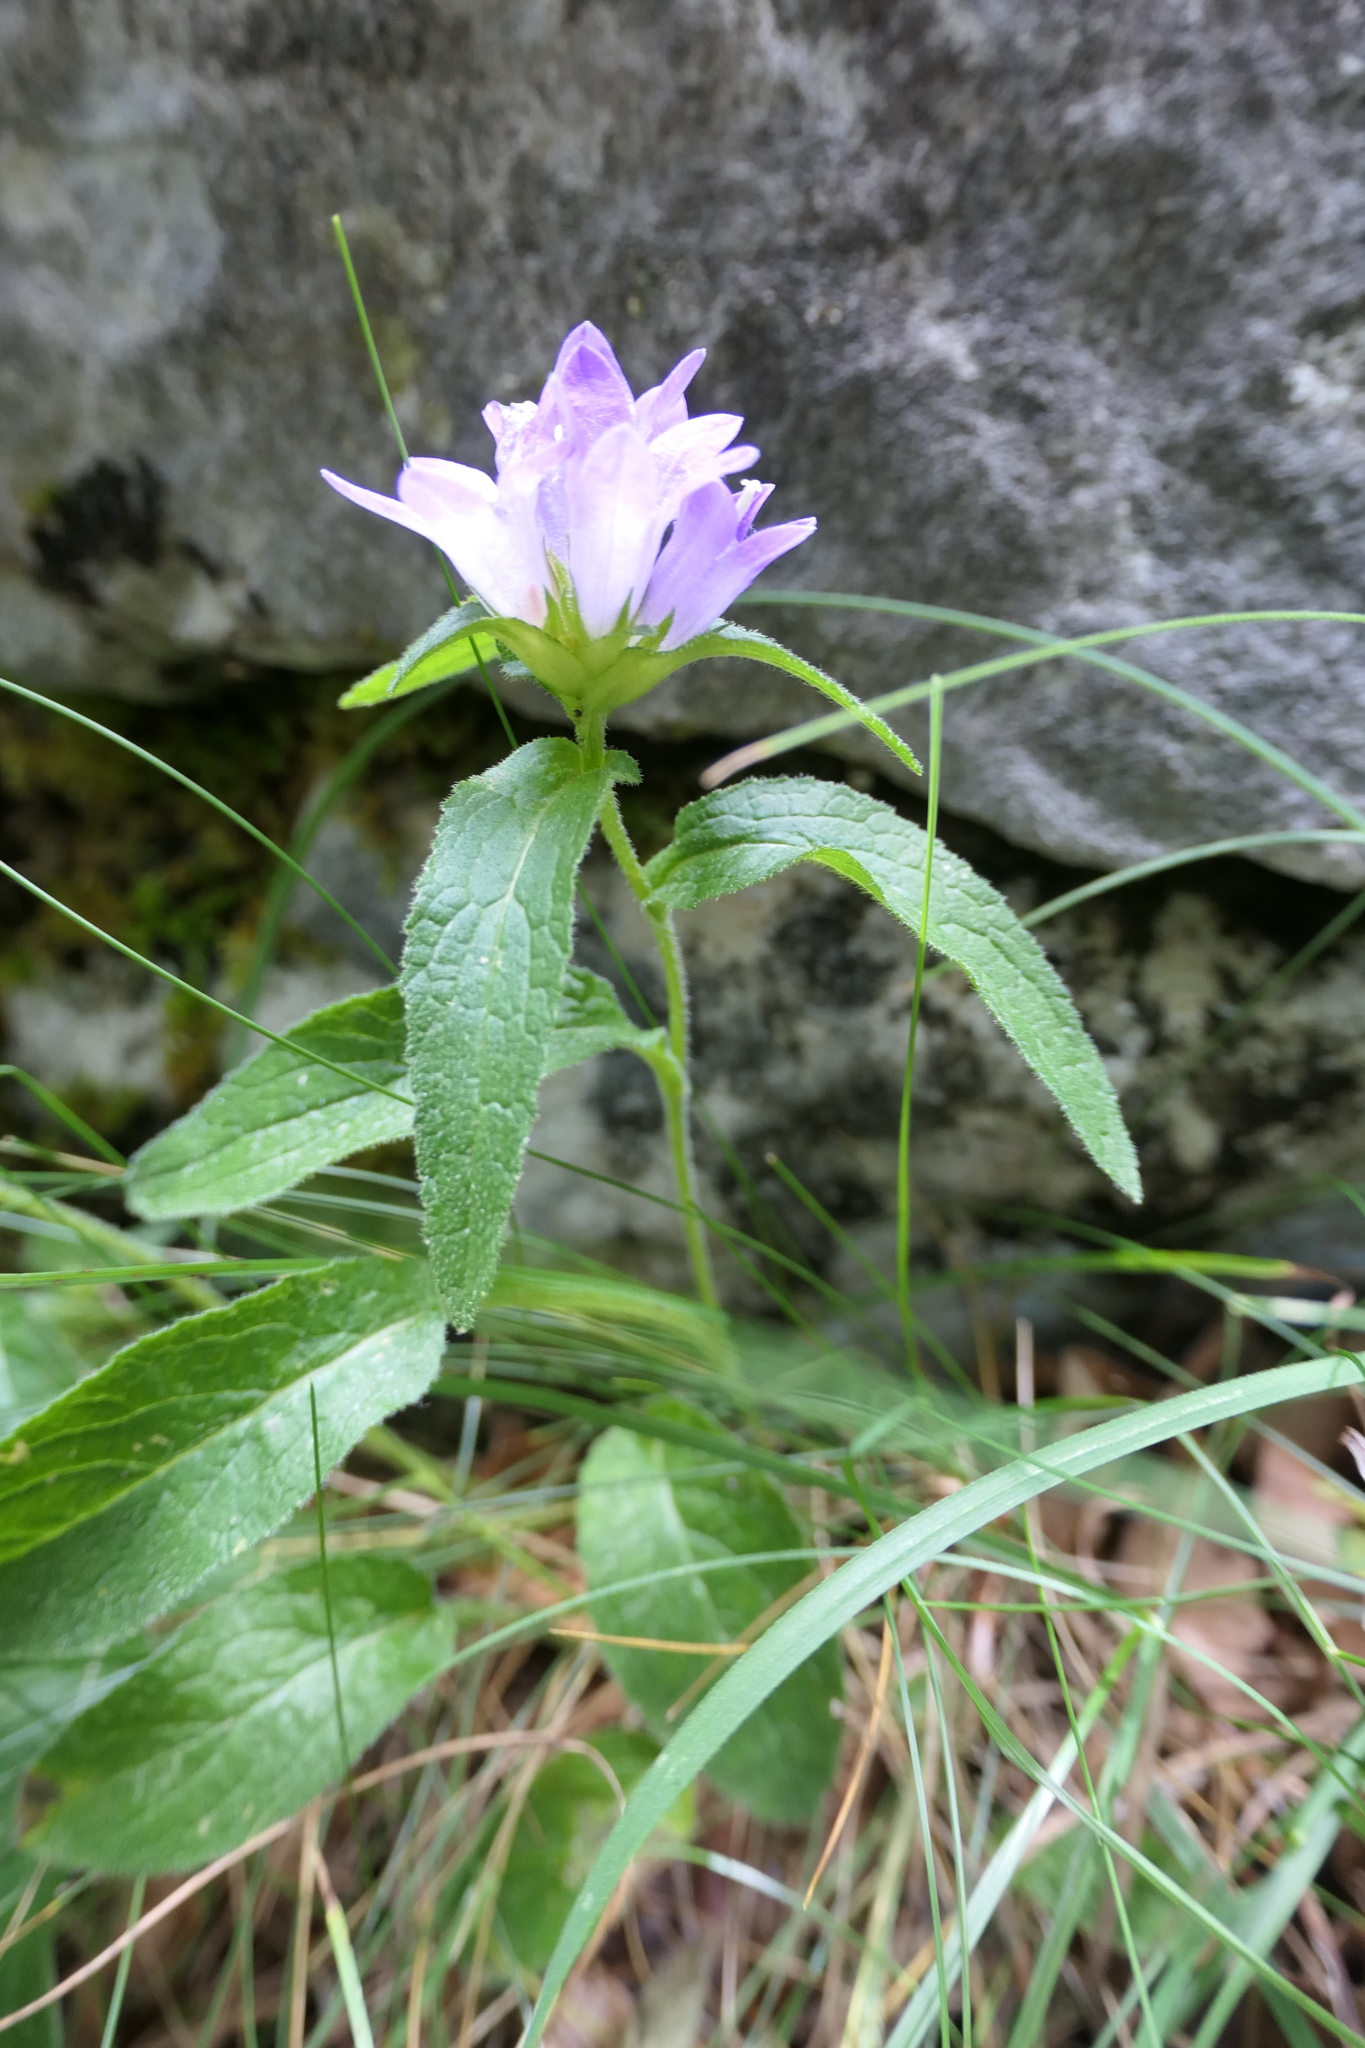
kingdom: Plantae
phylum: Tracheophyta
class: Magnoliopsida
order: Asterales
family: Campanulaceae
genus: Campanula
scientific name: Campanula glomerata
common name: Clustered bellflower
